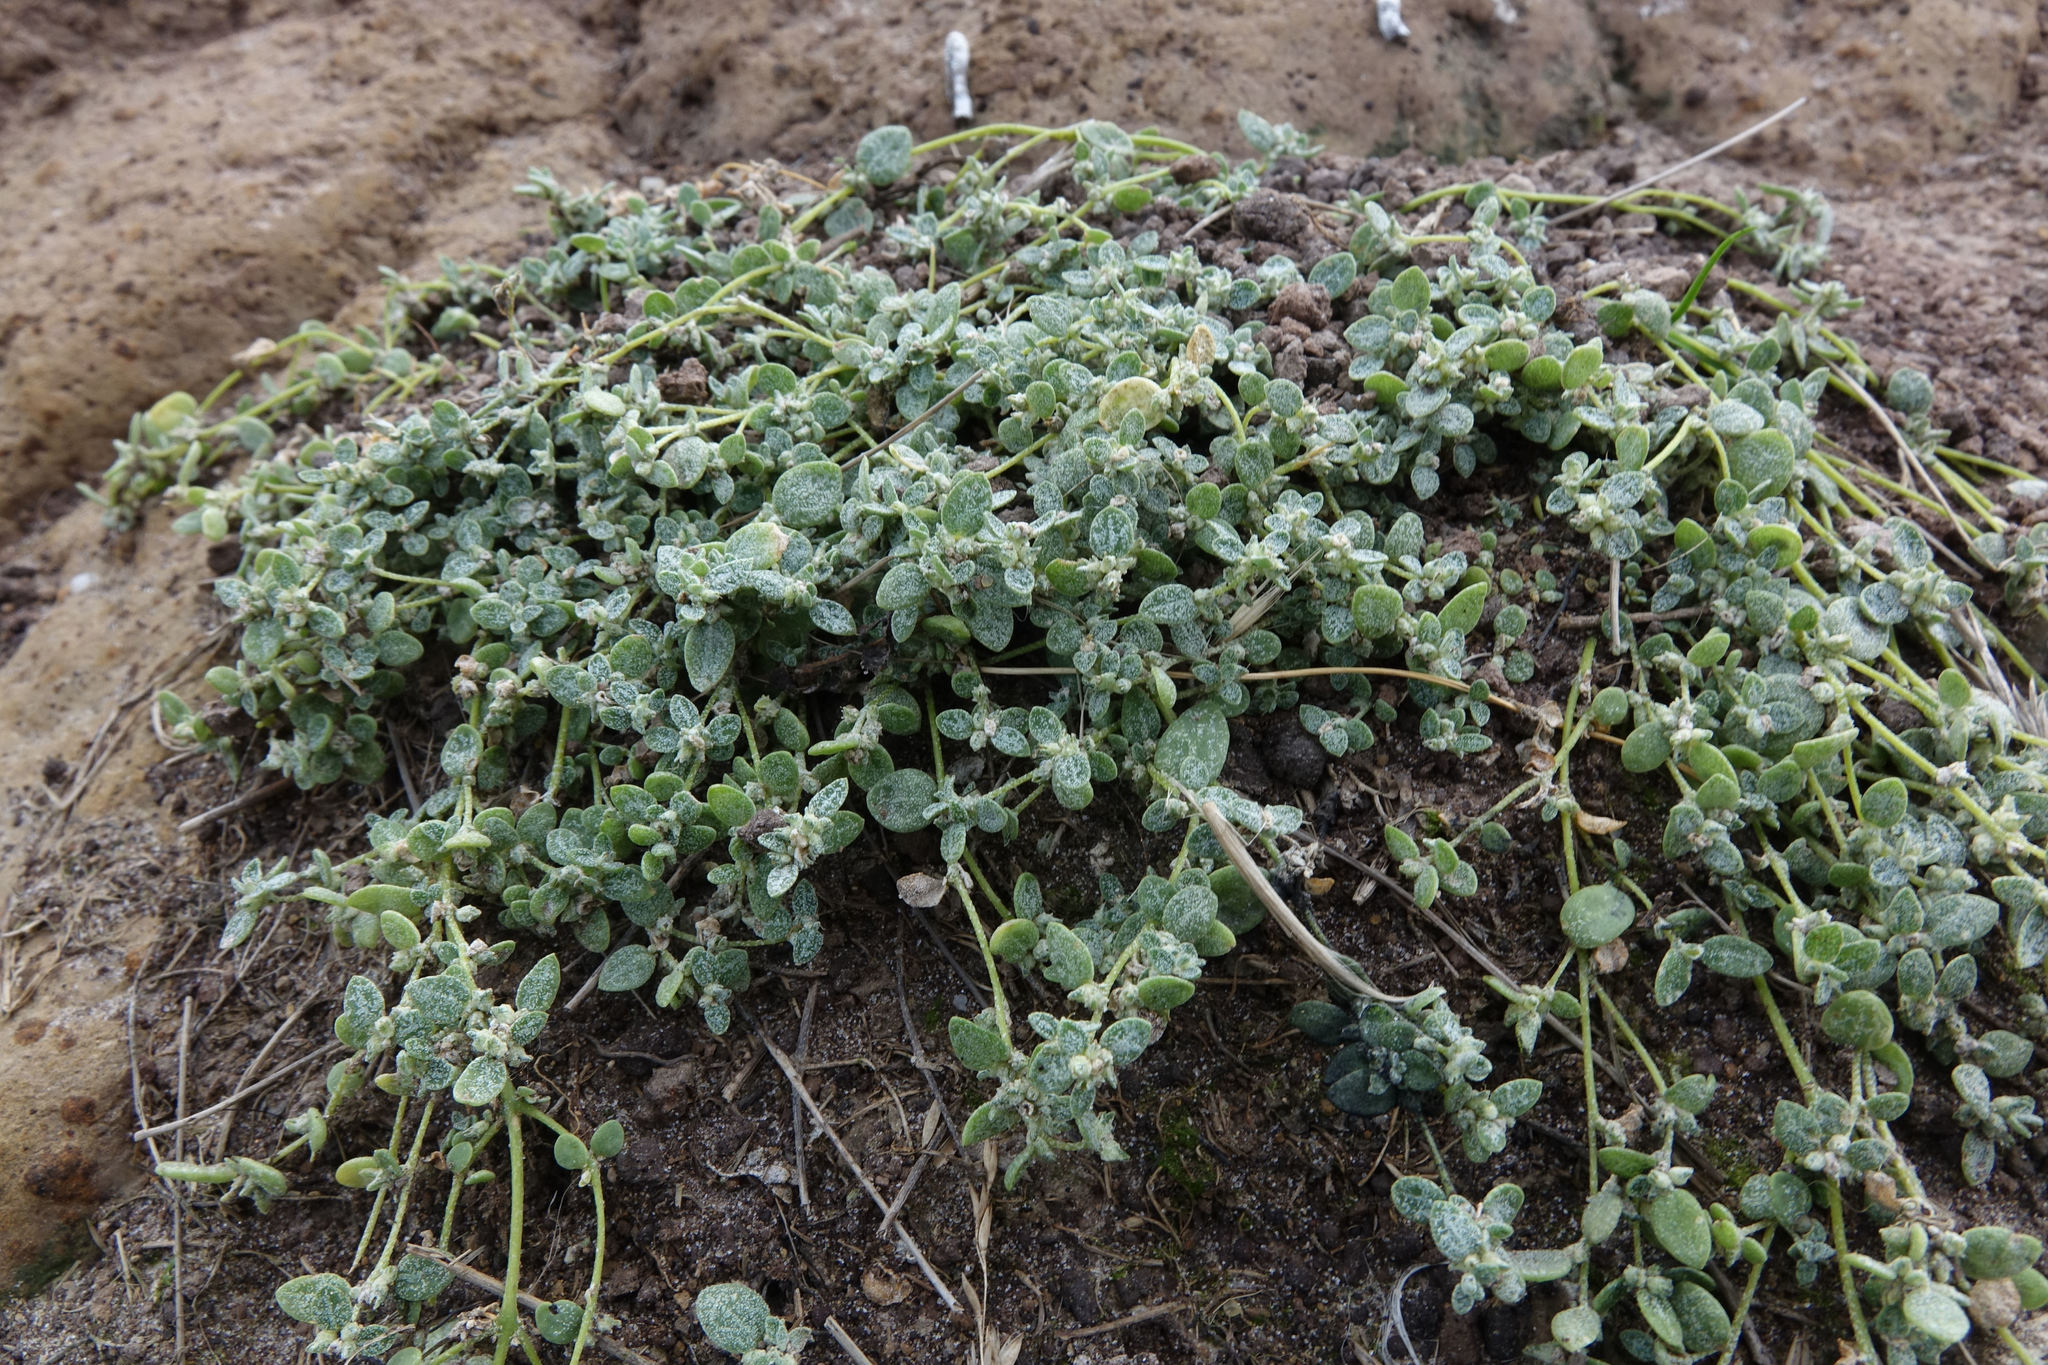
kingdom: Plantae
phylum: Tracheophyta
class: Magnoliopsida
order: Caryophyllales
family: Amaranthaceae
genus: Atriplex
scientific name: Atriplex buchananii
